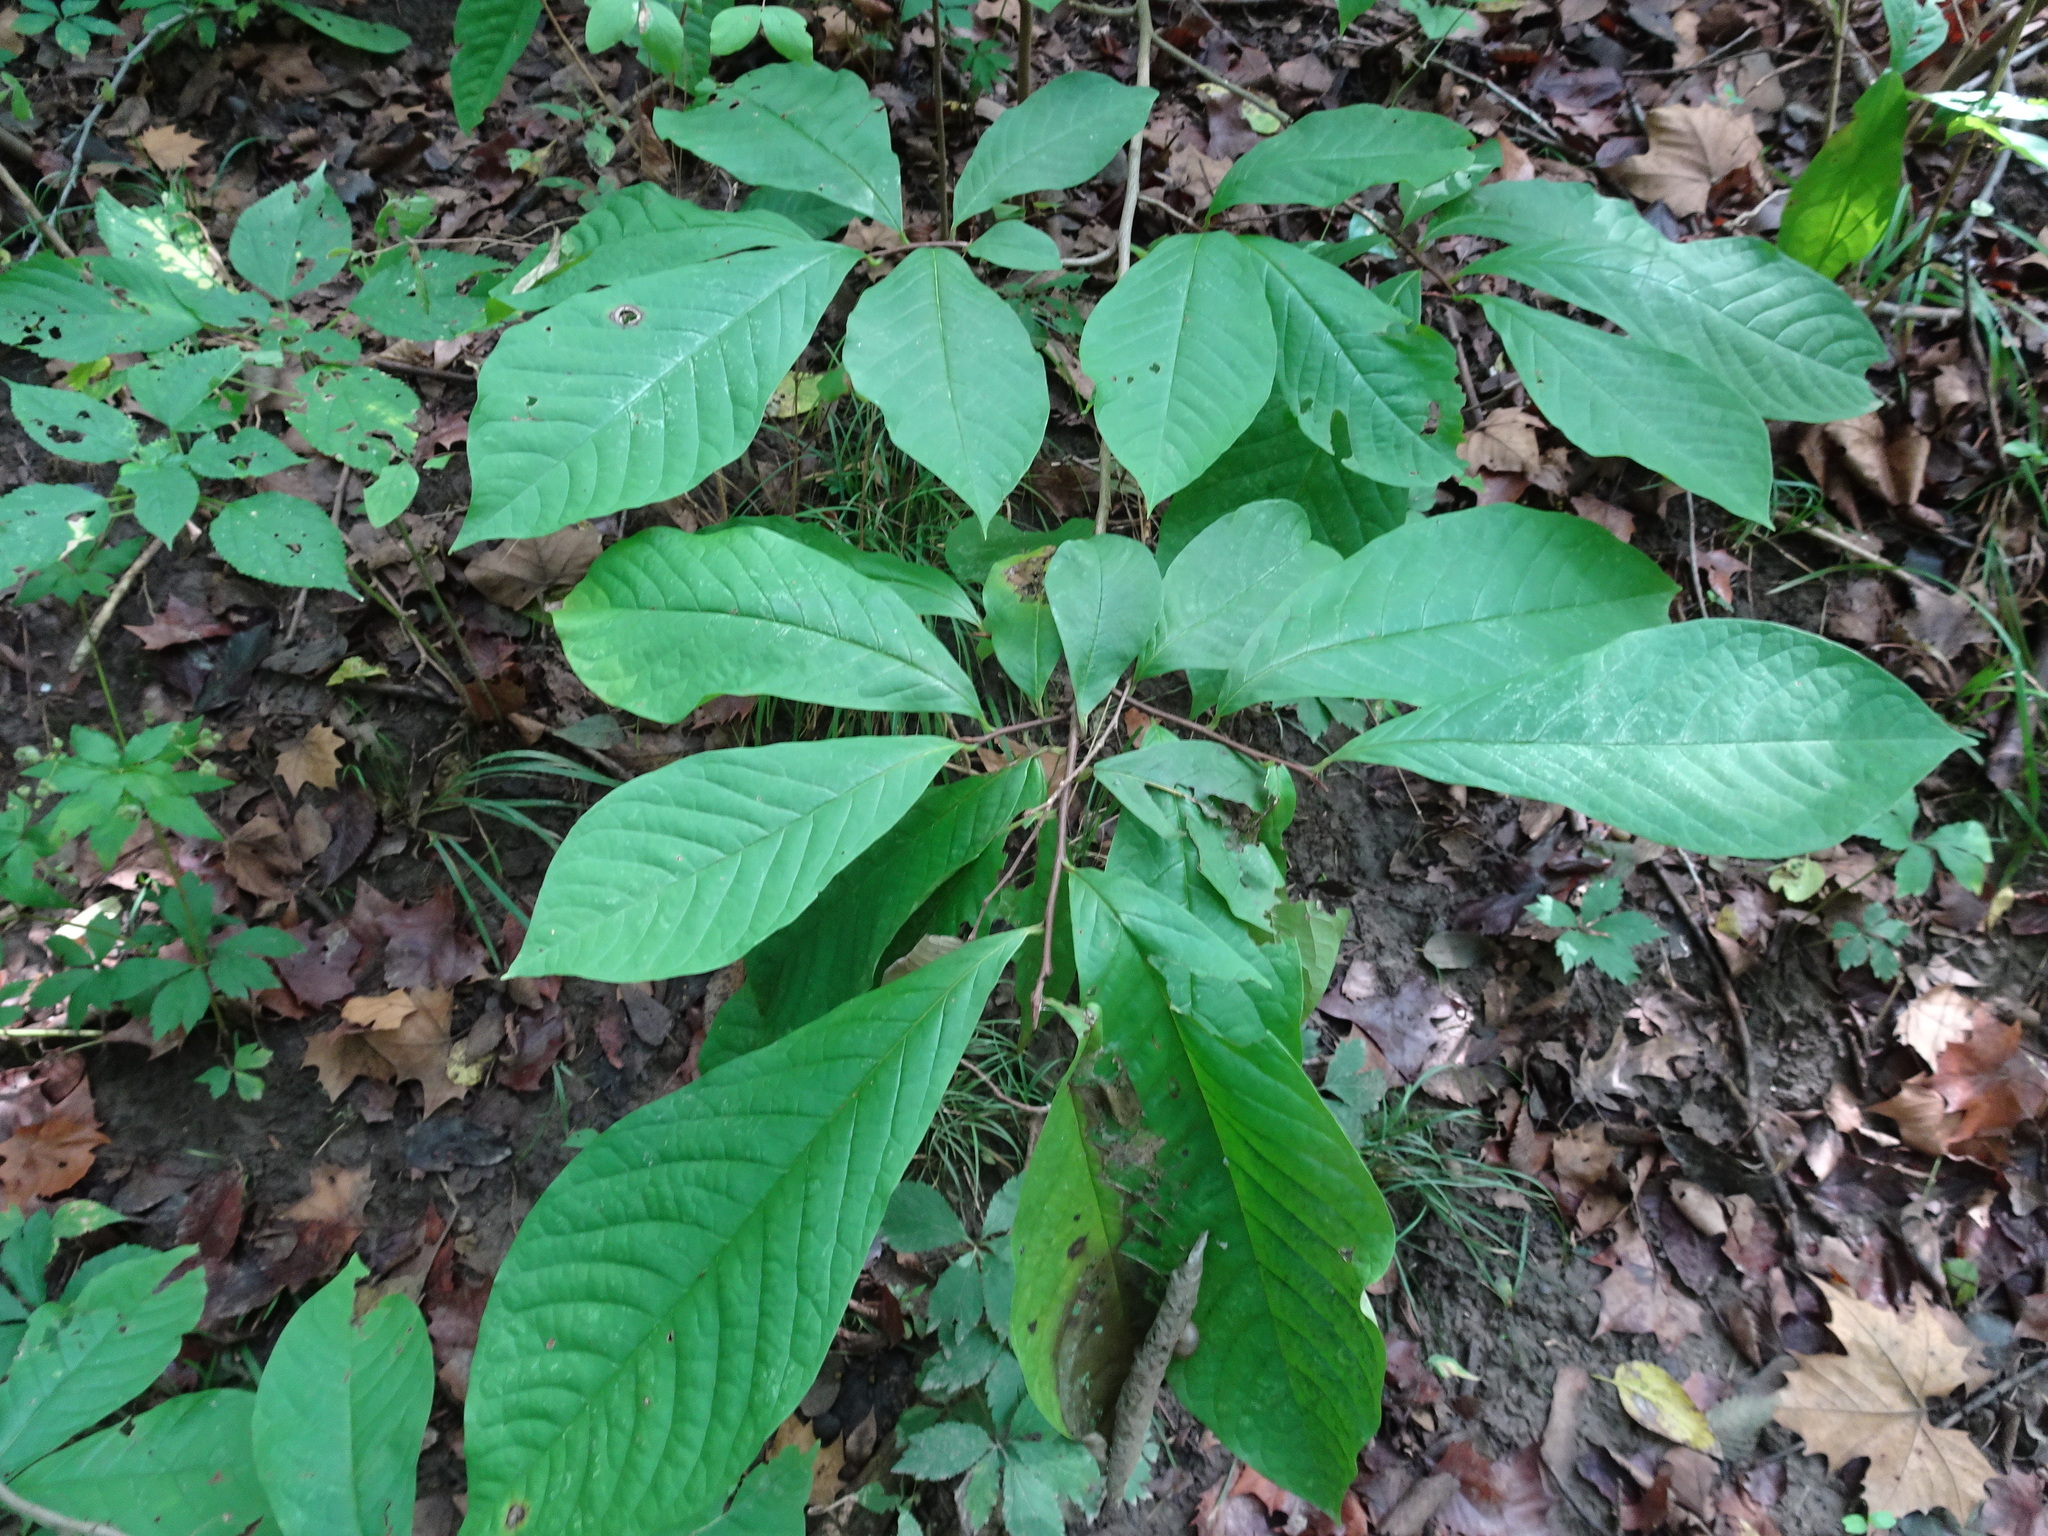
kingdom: Plantae
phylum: Tracheophyta
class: Magnoliopsida
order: Magnoliales
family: Annonaceae
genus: Asimina
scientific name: Asimina triloba
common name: Dog-banana
